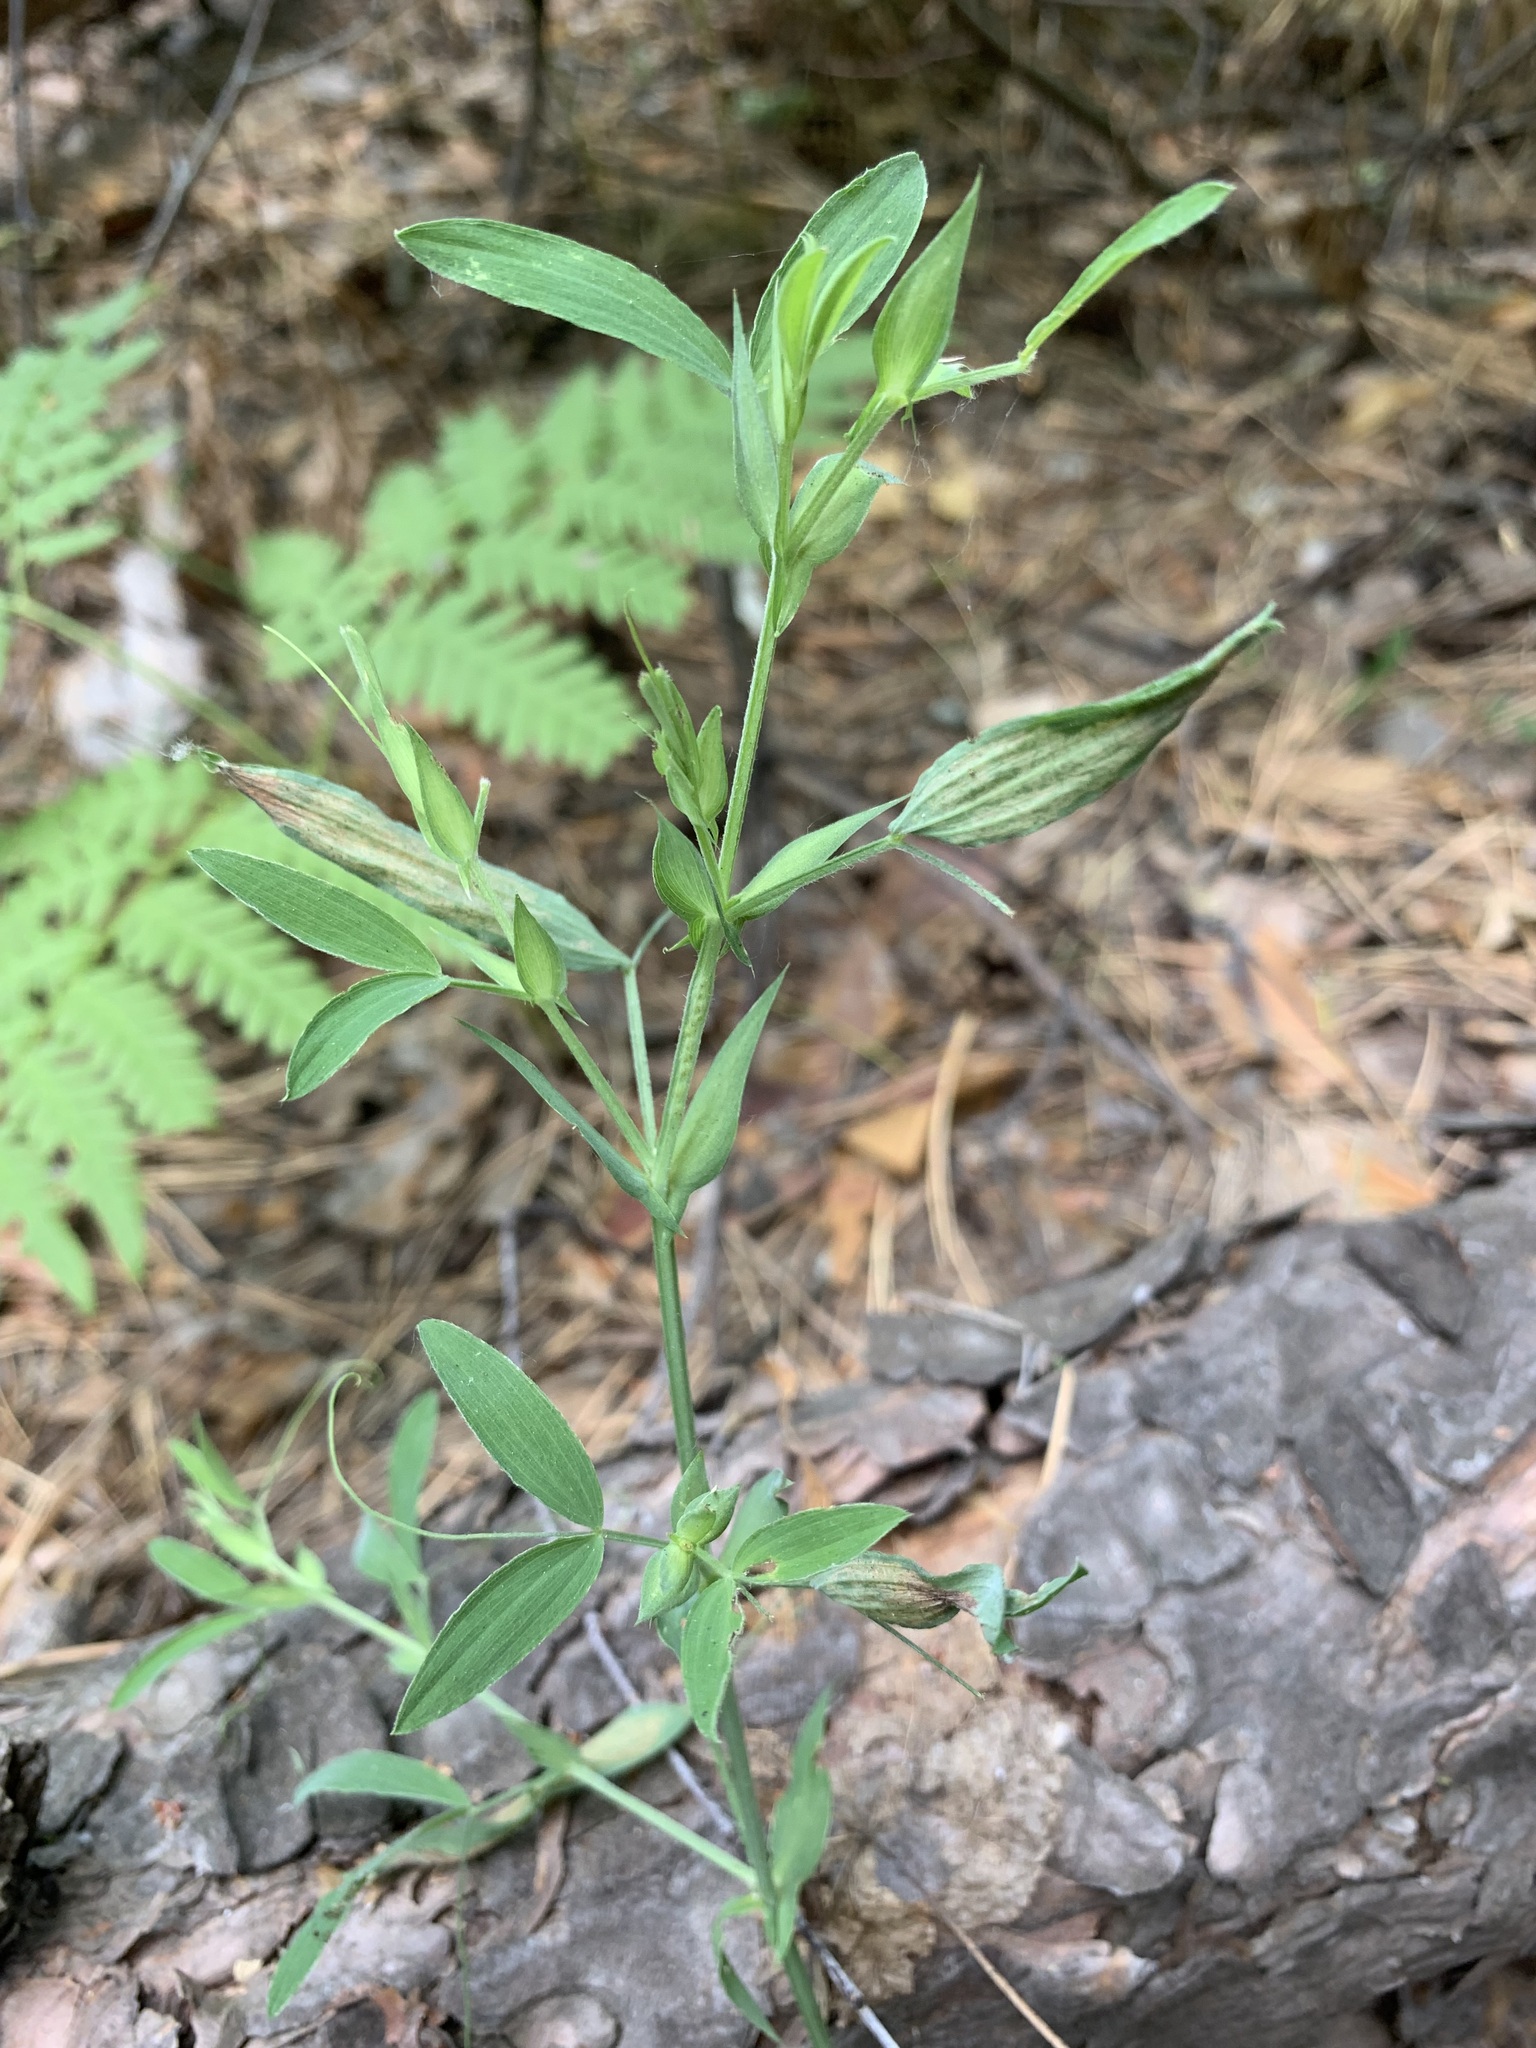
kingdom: Plantae
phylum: Tracheophyta
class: Magnoliopsida
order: Fabales
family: Fabaceae
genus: Lathyrus
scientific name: Lathyrus pratensis
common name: Meadow vetchling
